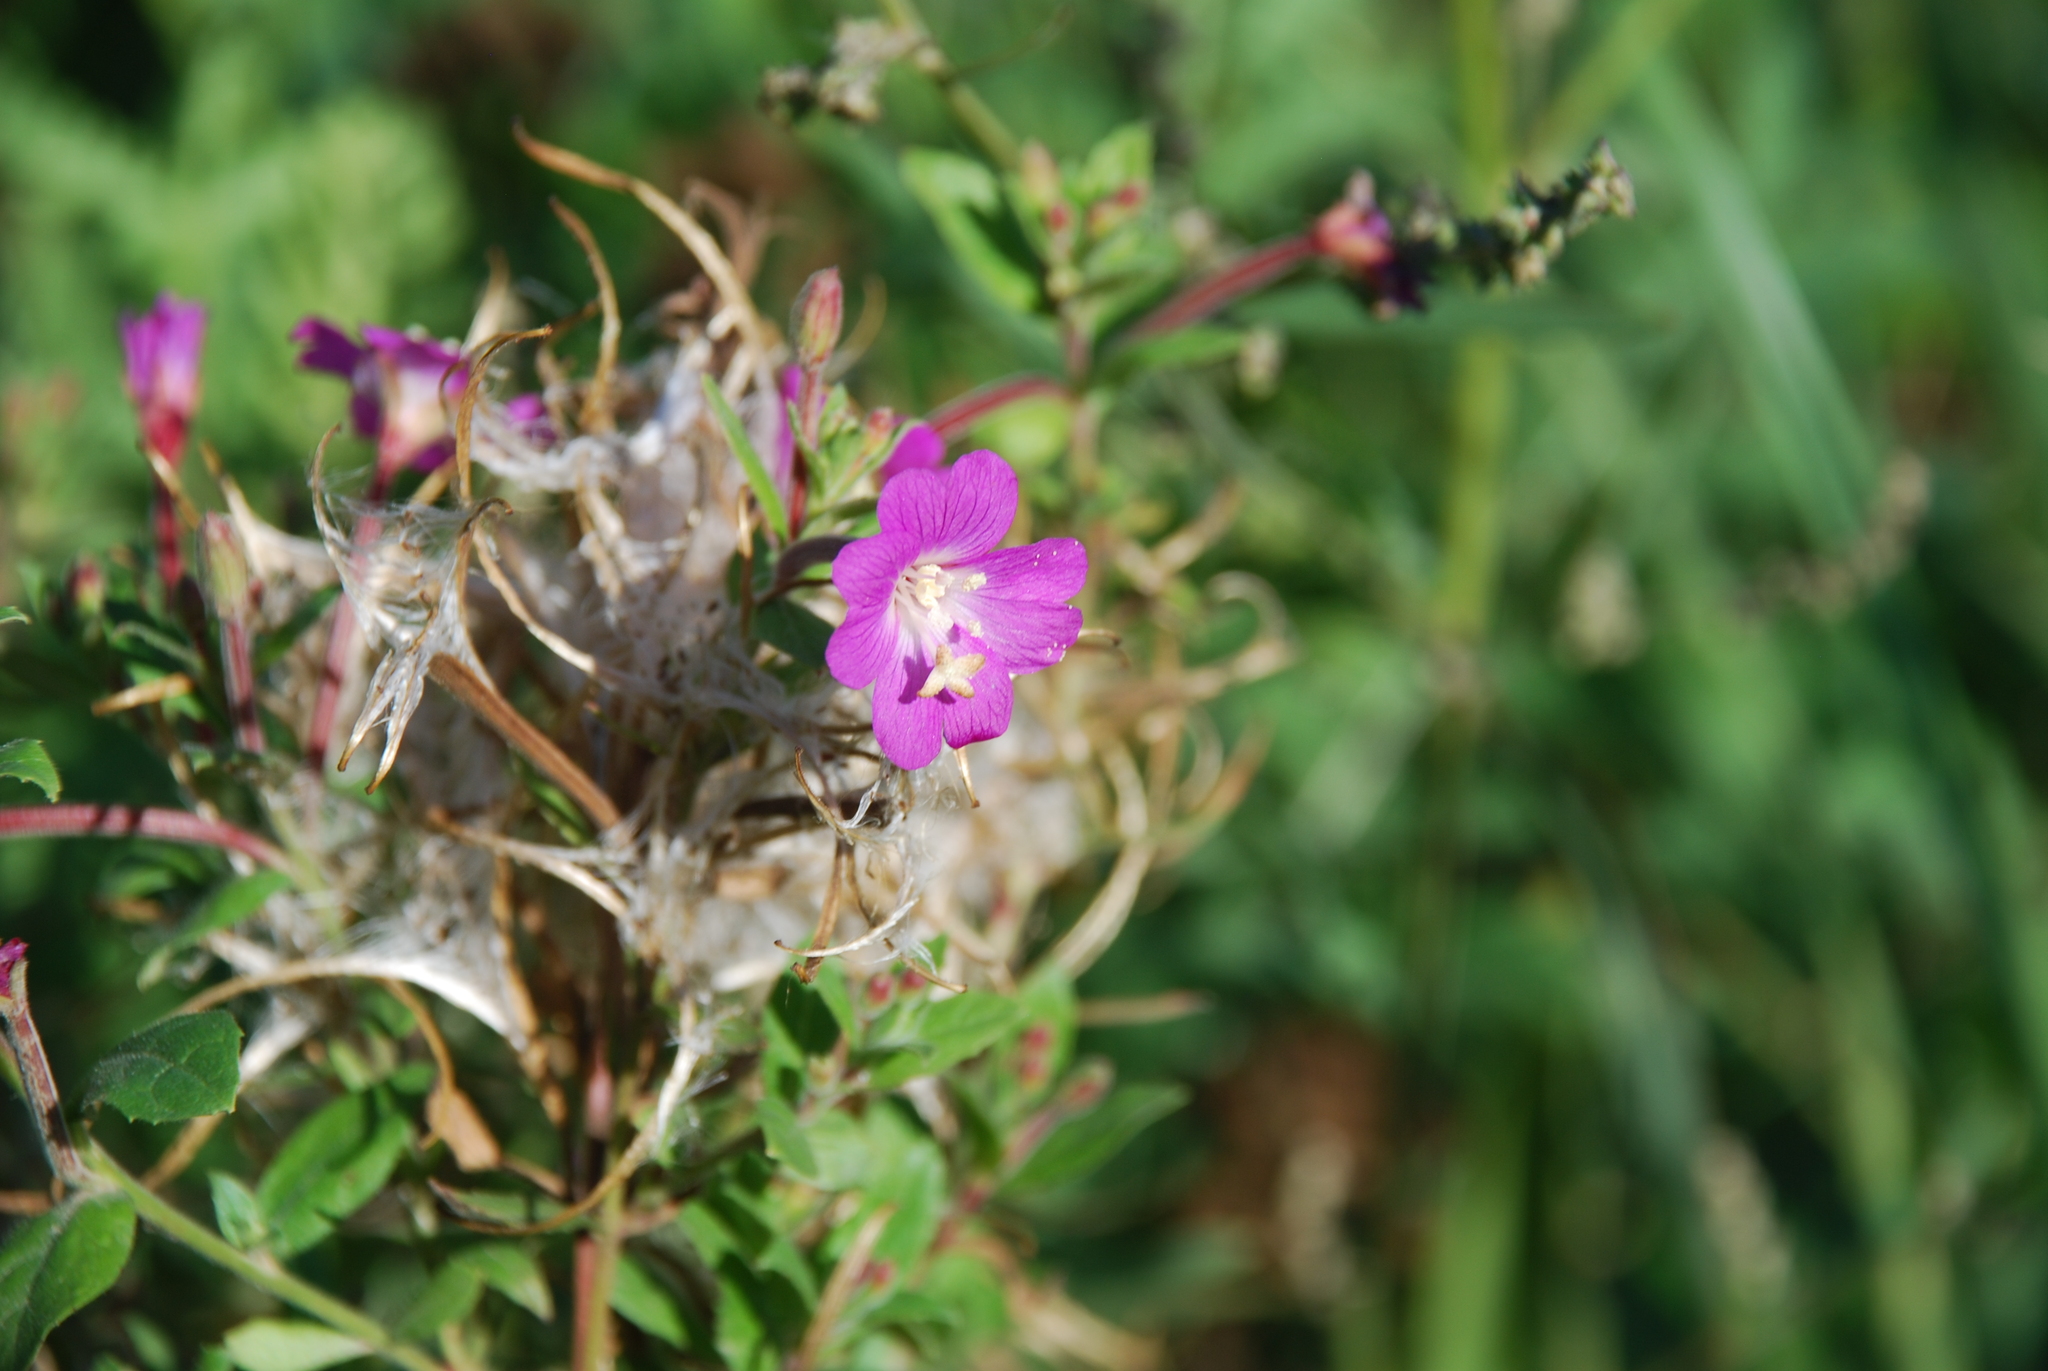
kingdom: Plantae
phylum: Tracheophyta
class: Magnoliopsida
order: Myrtales
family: Onagraceae
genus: Epilobium
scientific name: Epilobium hirsutum
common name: Great willowherb
